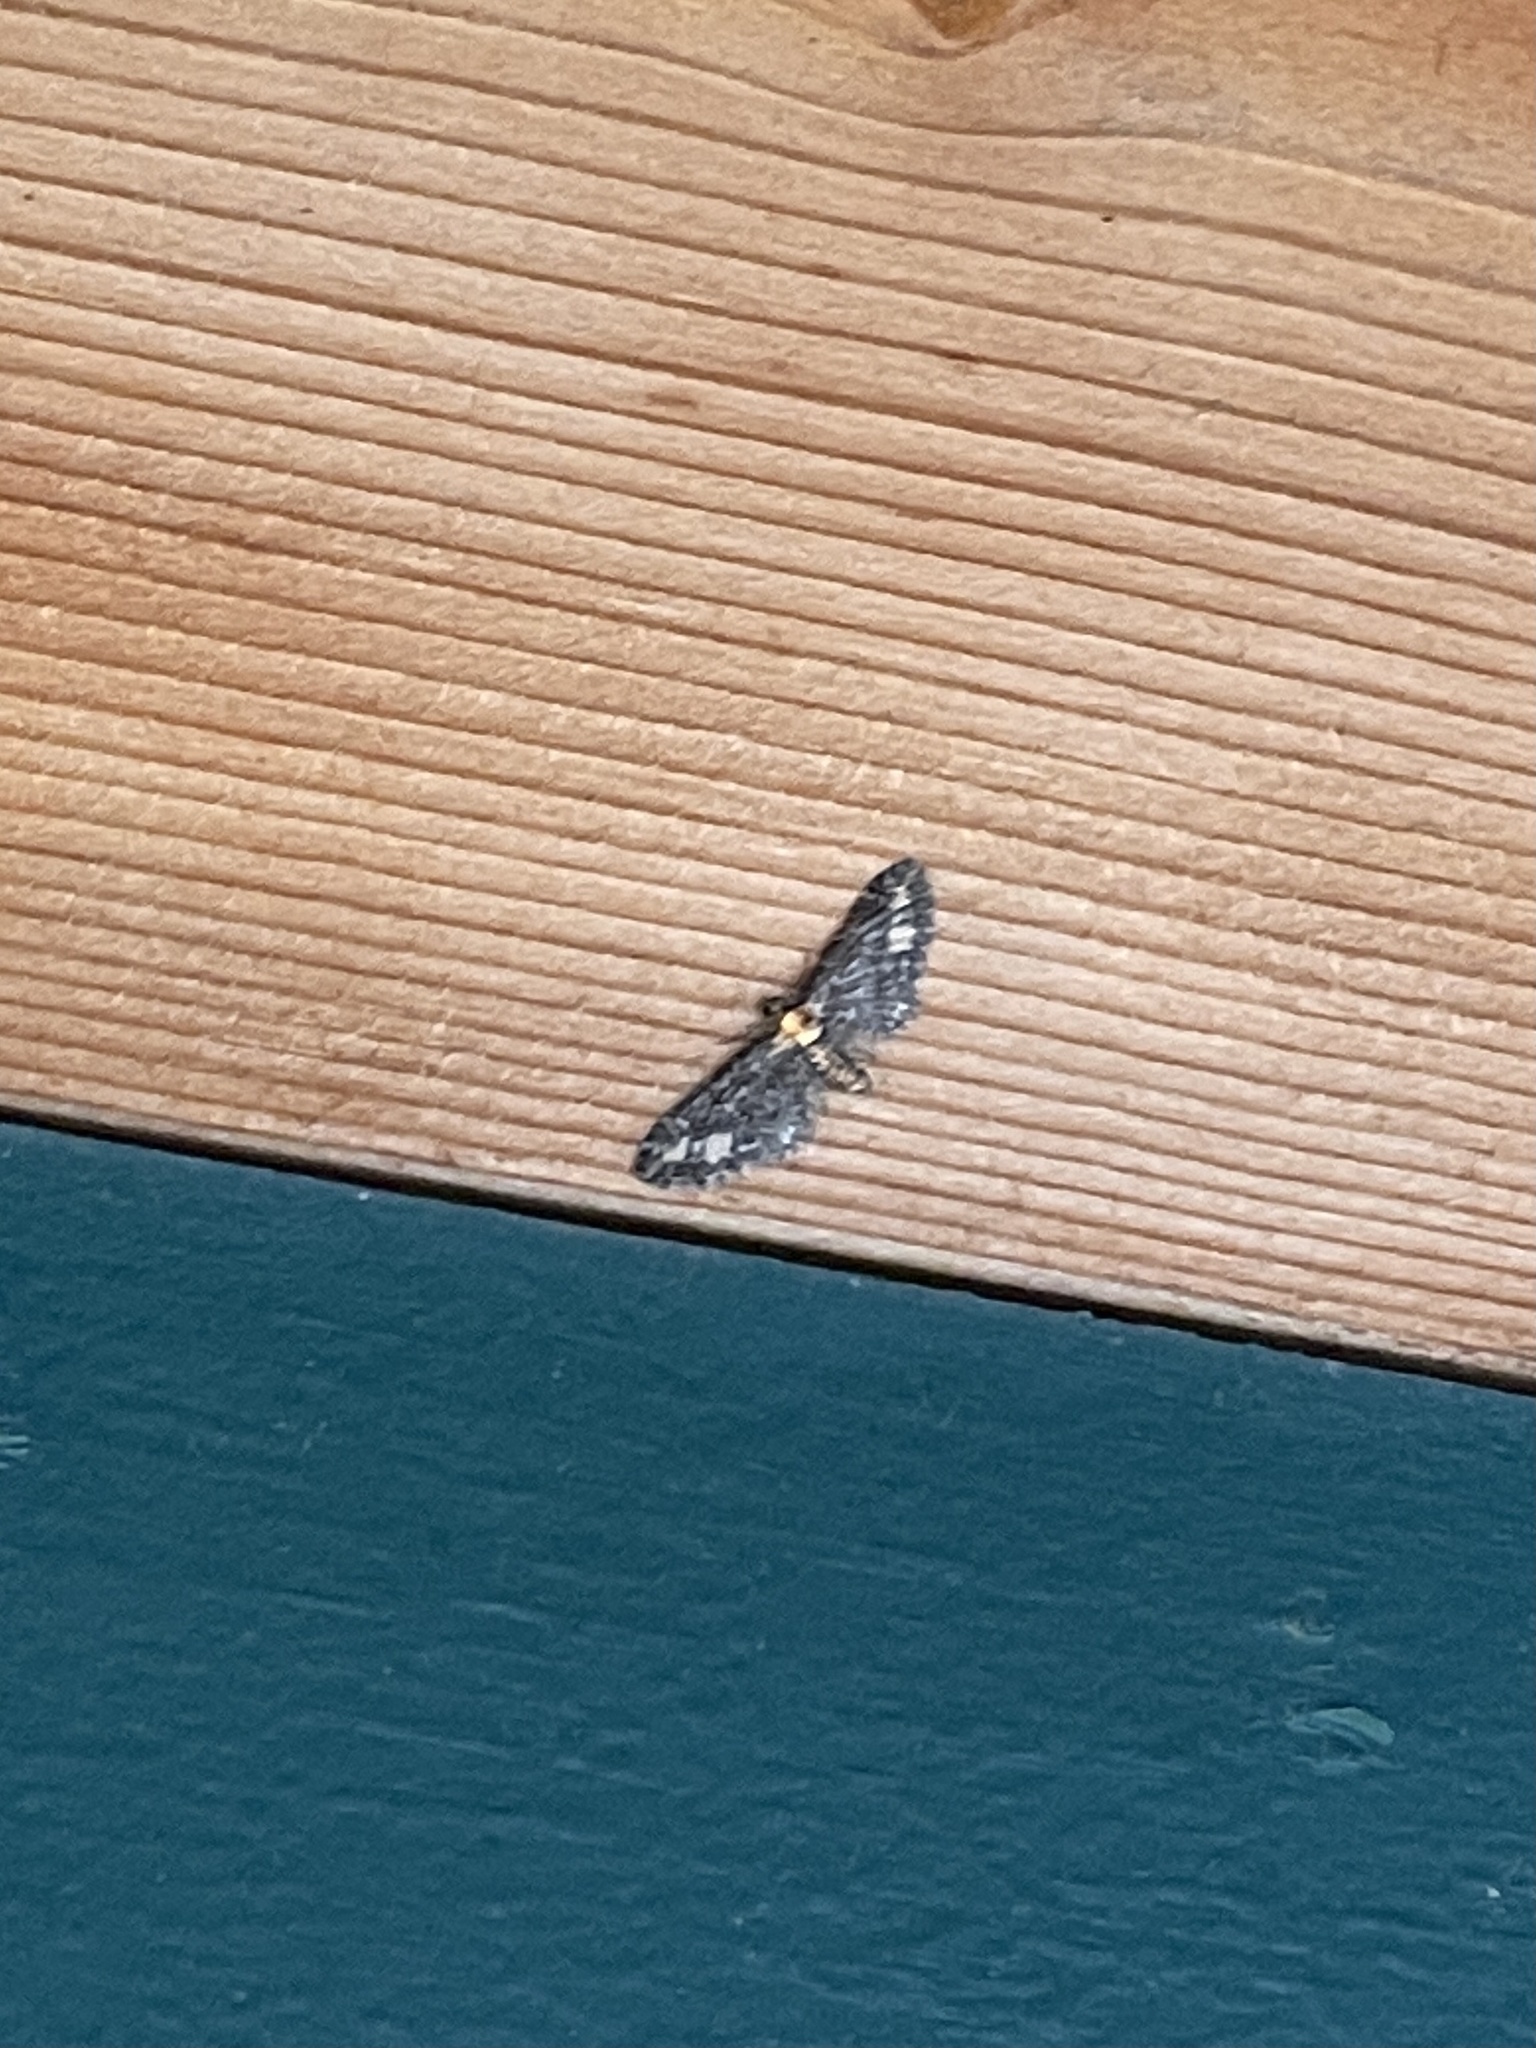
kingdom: Animalia
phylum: Arthropoda
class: Insecta
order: Lepidoptera
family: Geometridae
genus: Eupithecia
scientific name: Eupithecia flavigutta
